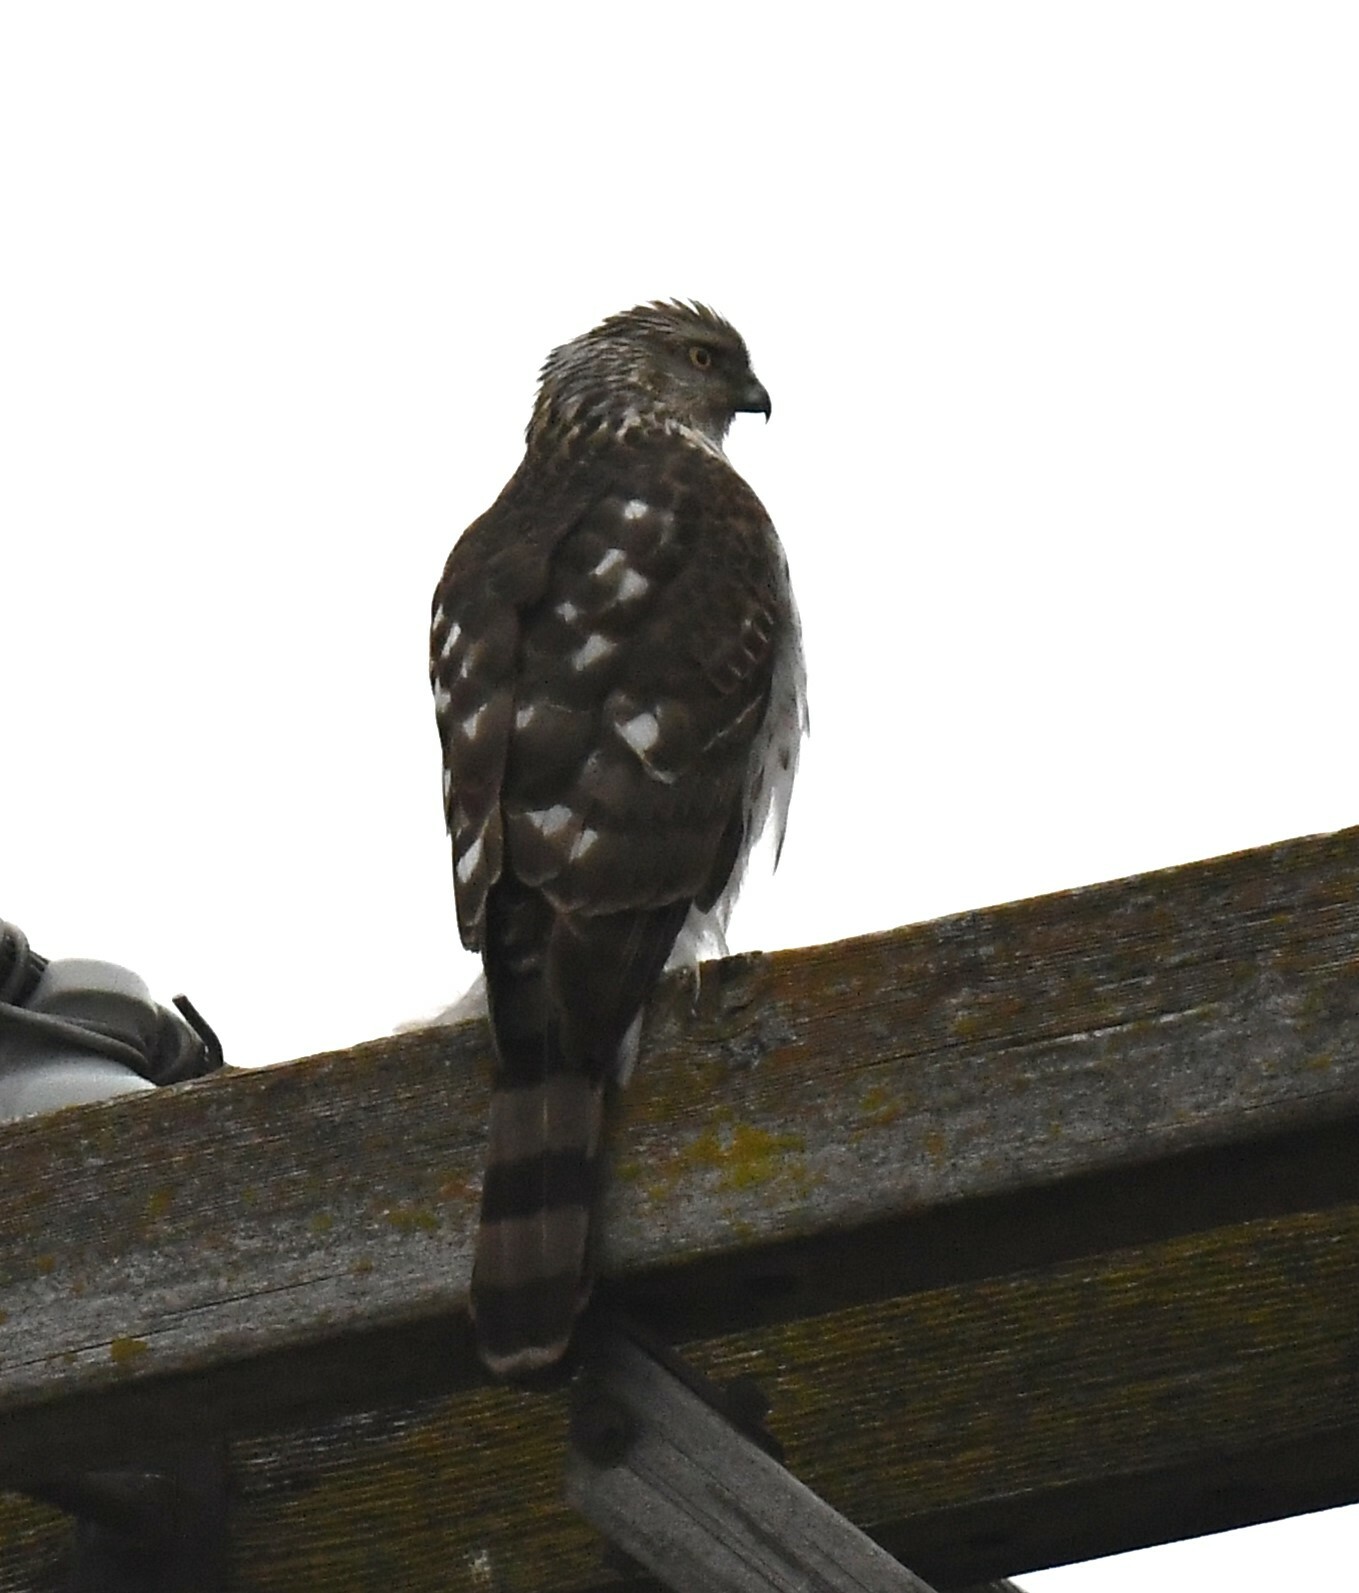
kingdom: Animalia
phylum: Chordata
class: Aves
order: Accipitriformes
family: Accipitridae
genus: Accipiter
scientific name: Accipiter cooperii
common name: Cooper's hawk
